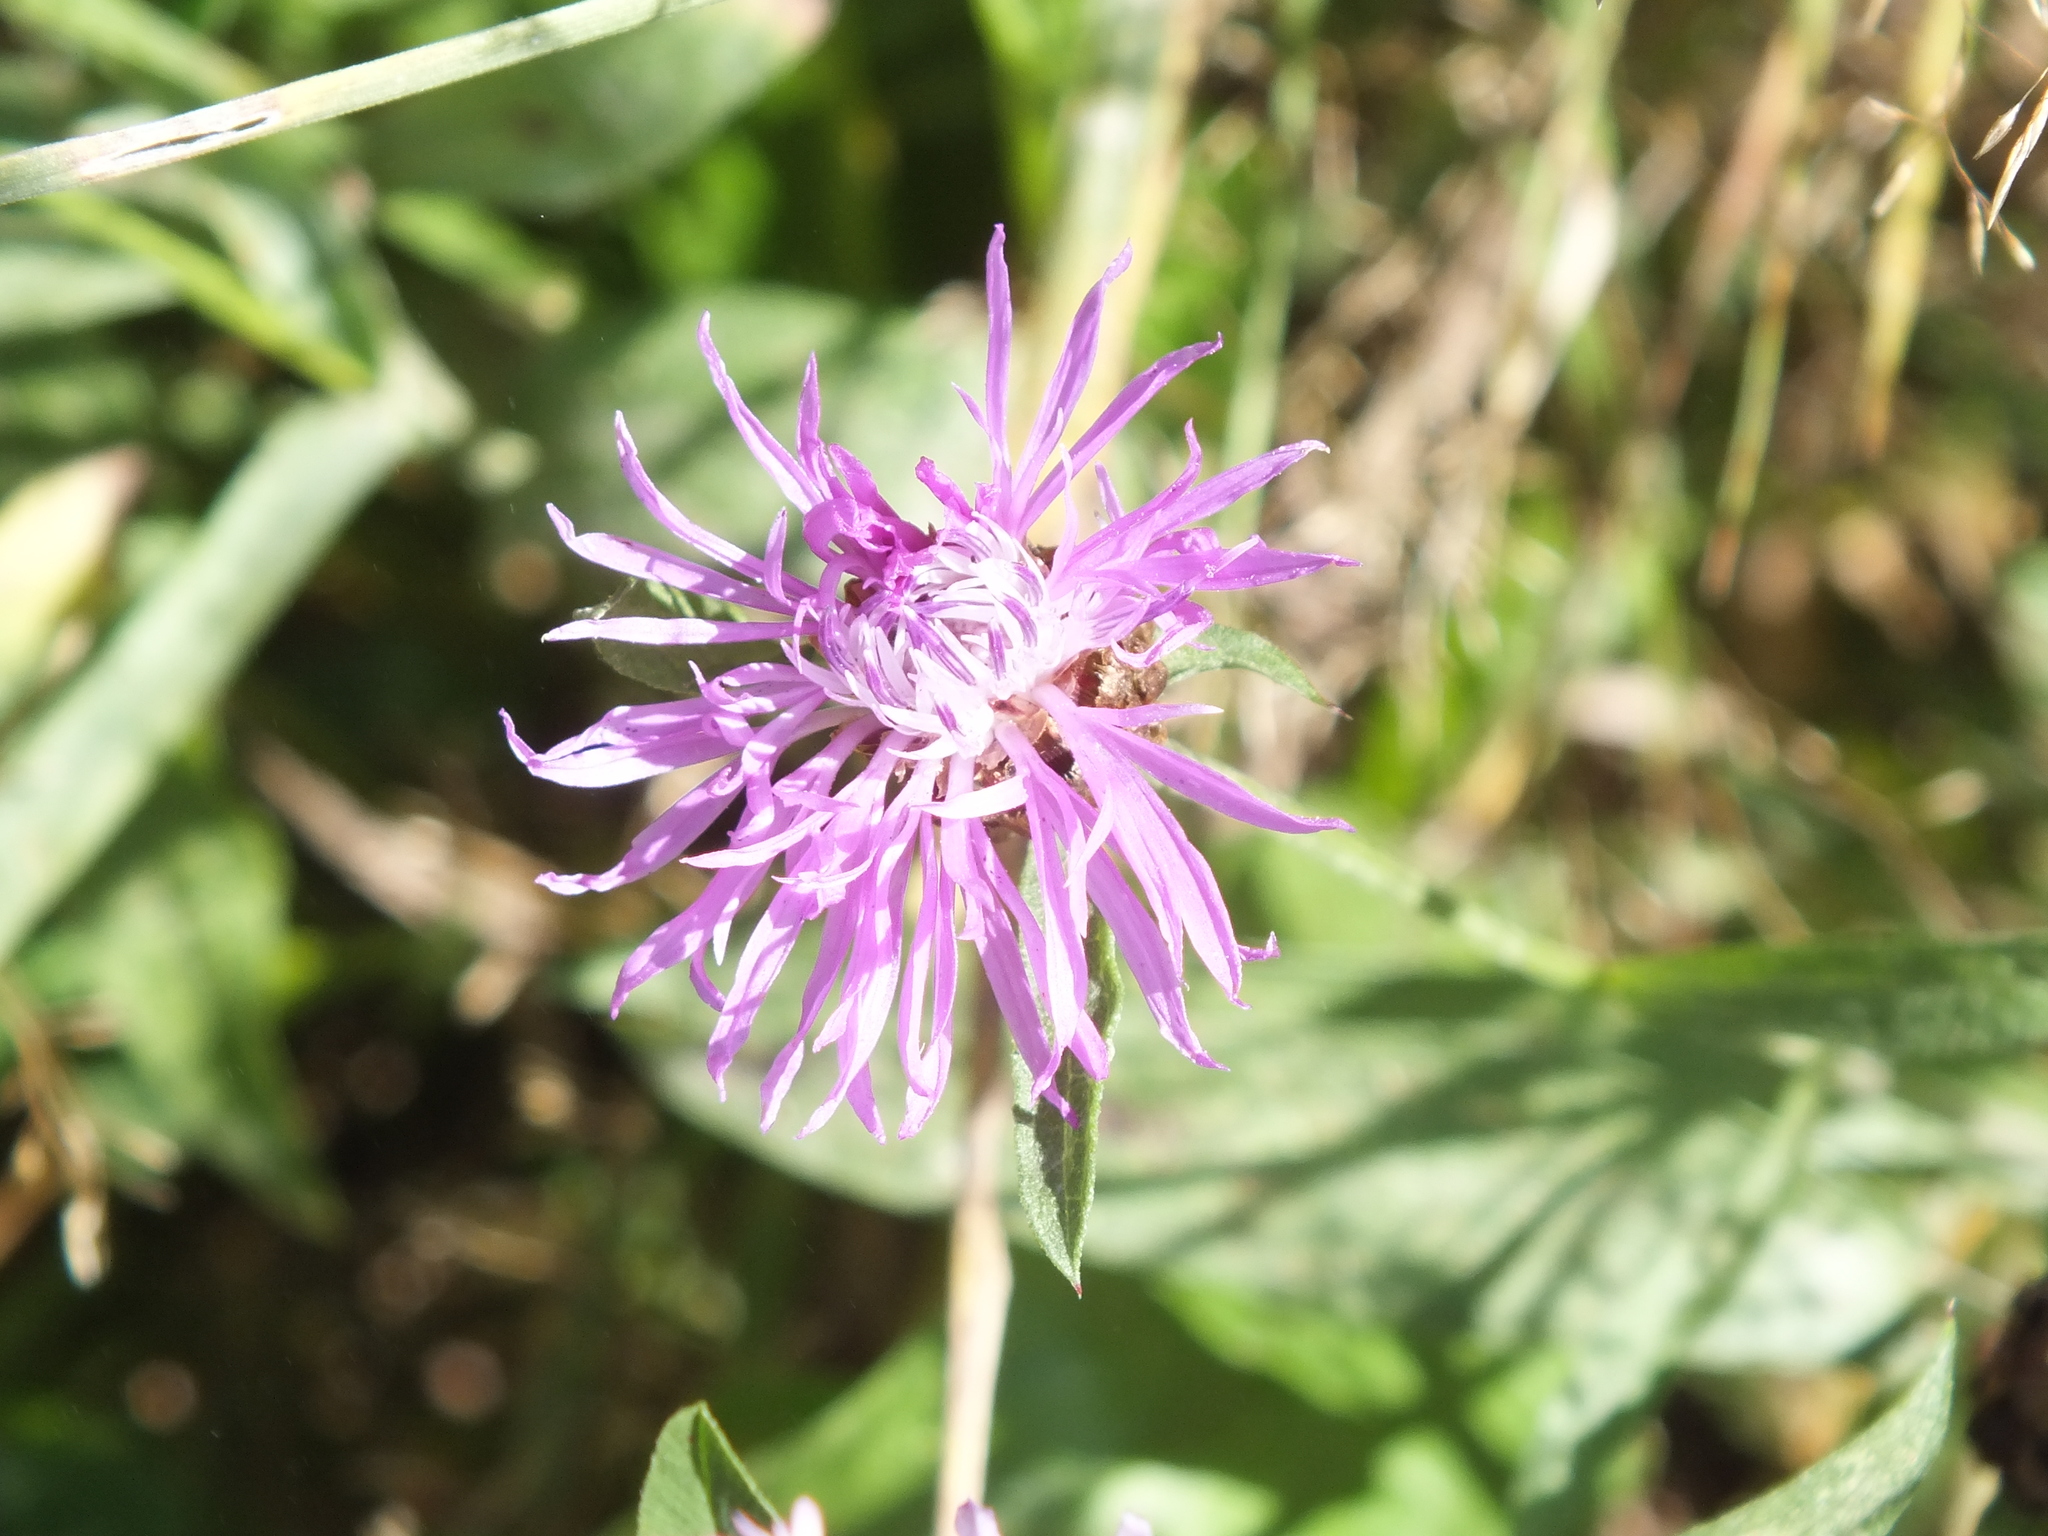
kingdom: Plantae
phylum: Tracheophyta
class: Magnoliopsida
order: Asterales
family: Asteraceae
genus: Centaurea
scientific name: Centaurea jacea
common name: Brown knapweed
